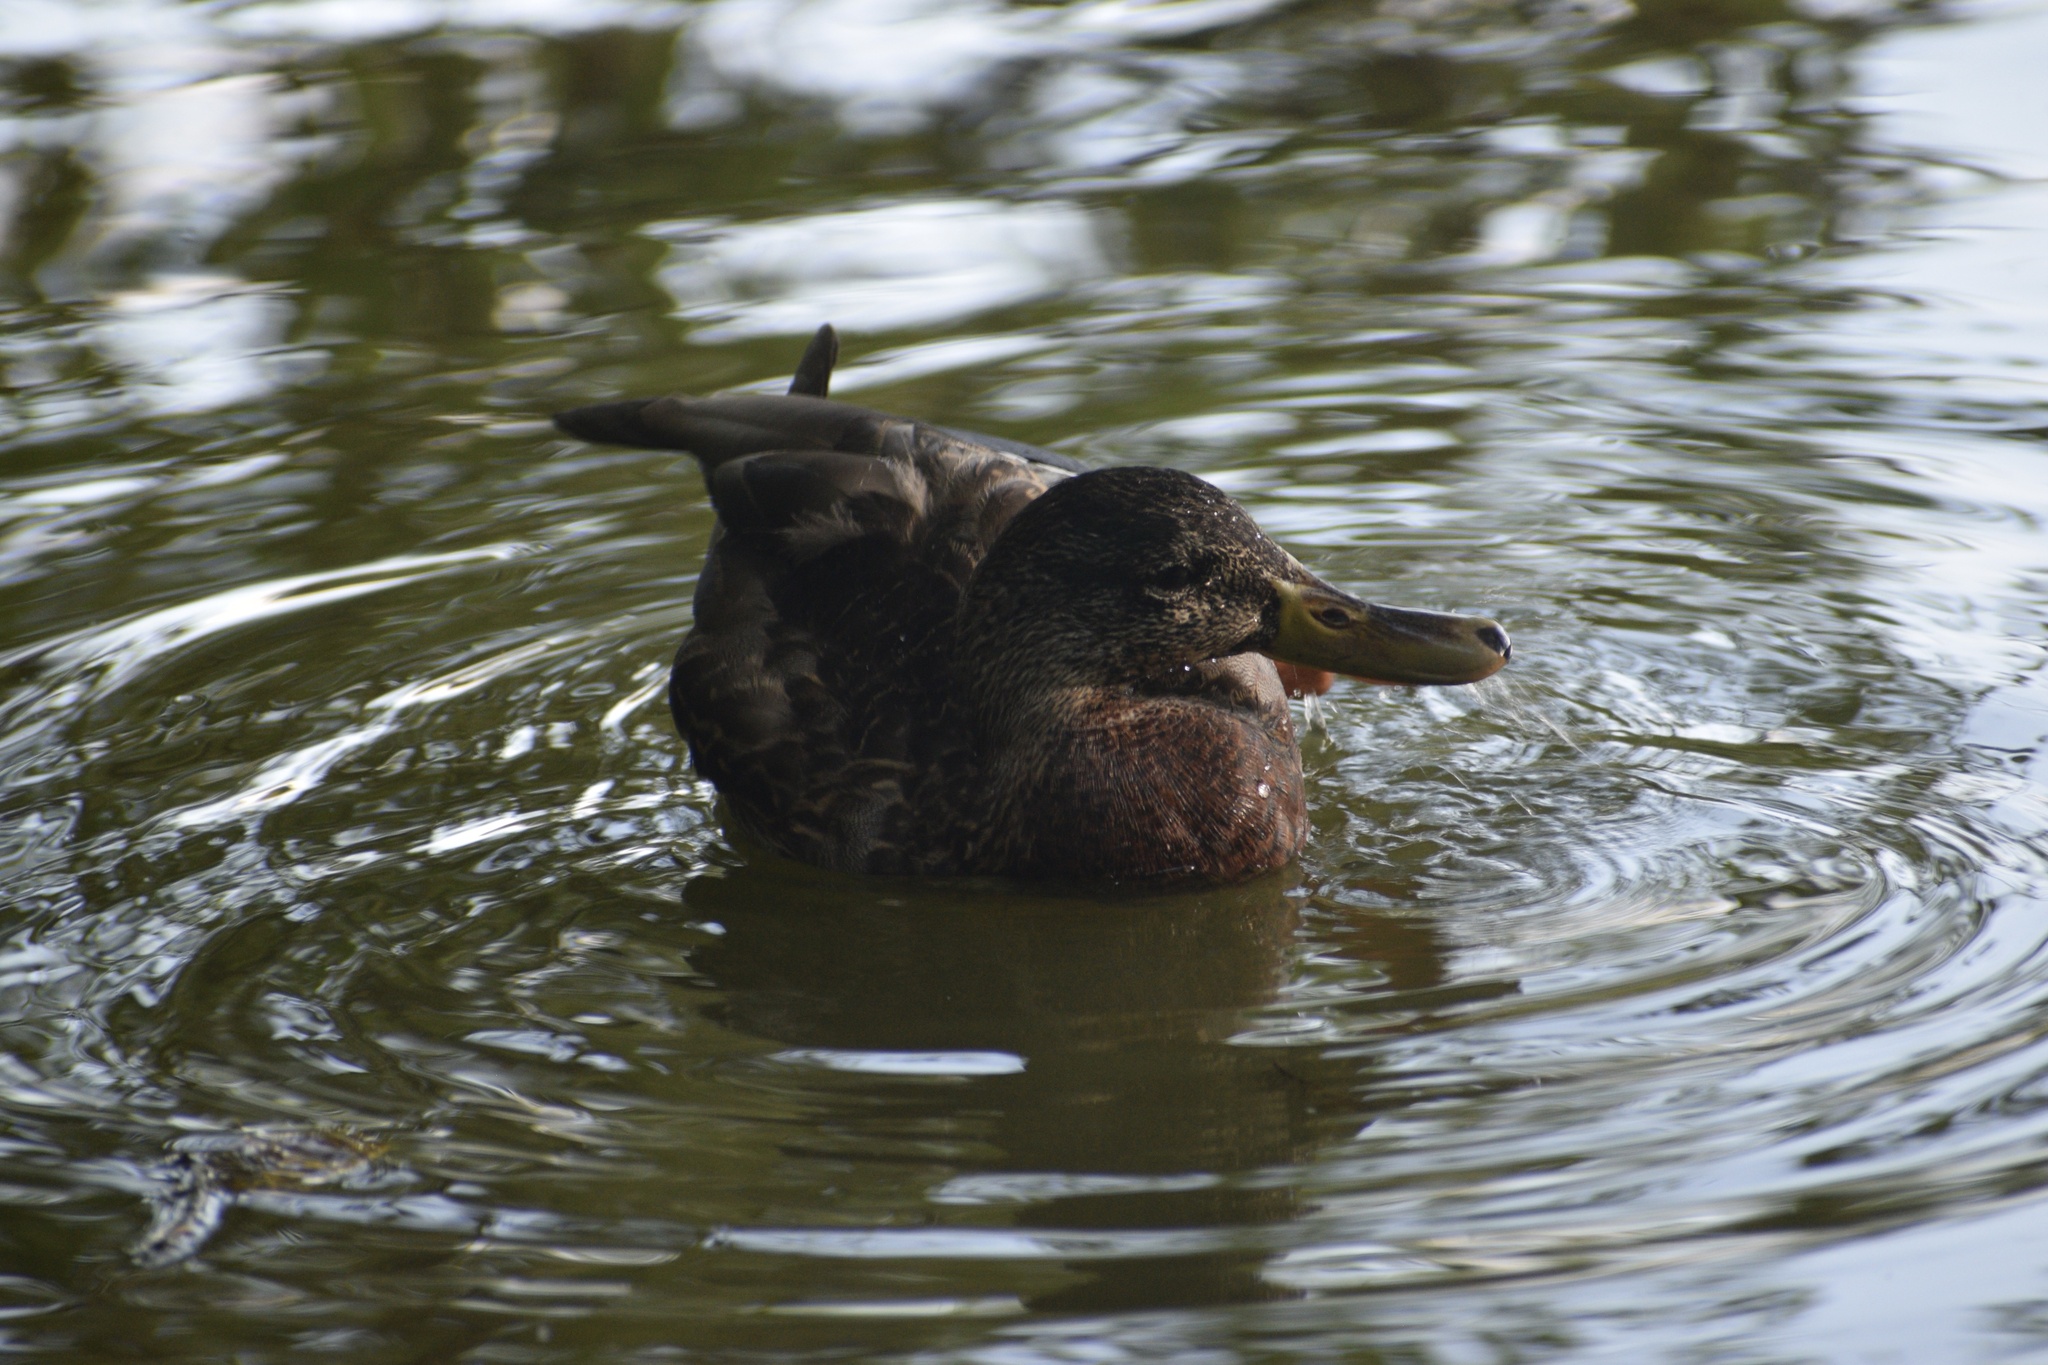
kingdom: Animalia
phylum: Chordata
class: Aves
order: Anseriformes
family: Anatidae
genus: Anas
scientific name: Anas platyrhynchos
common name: Mallard
